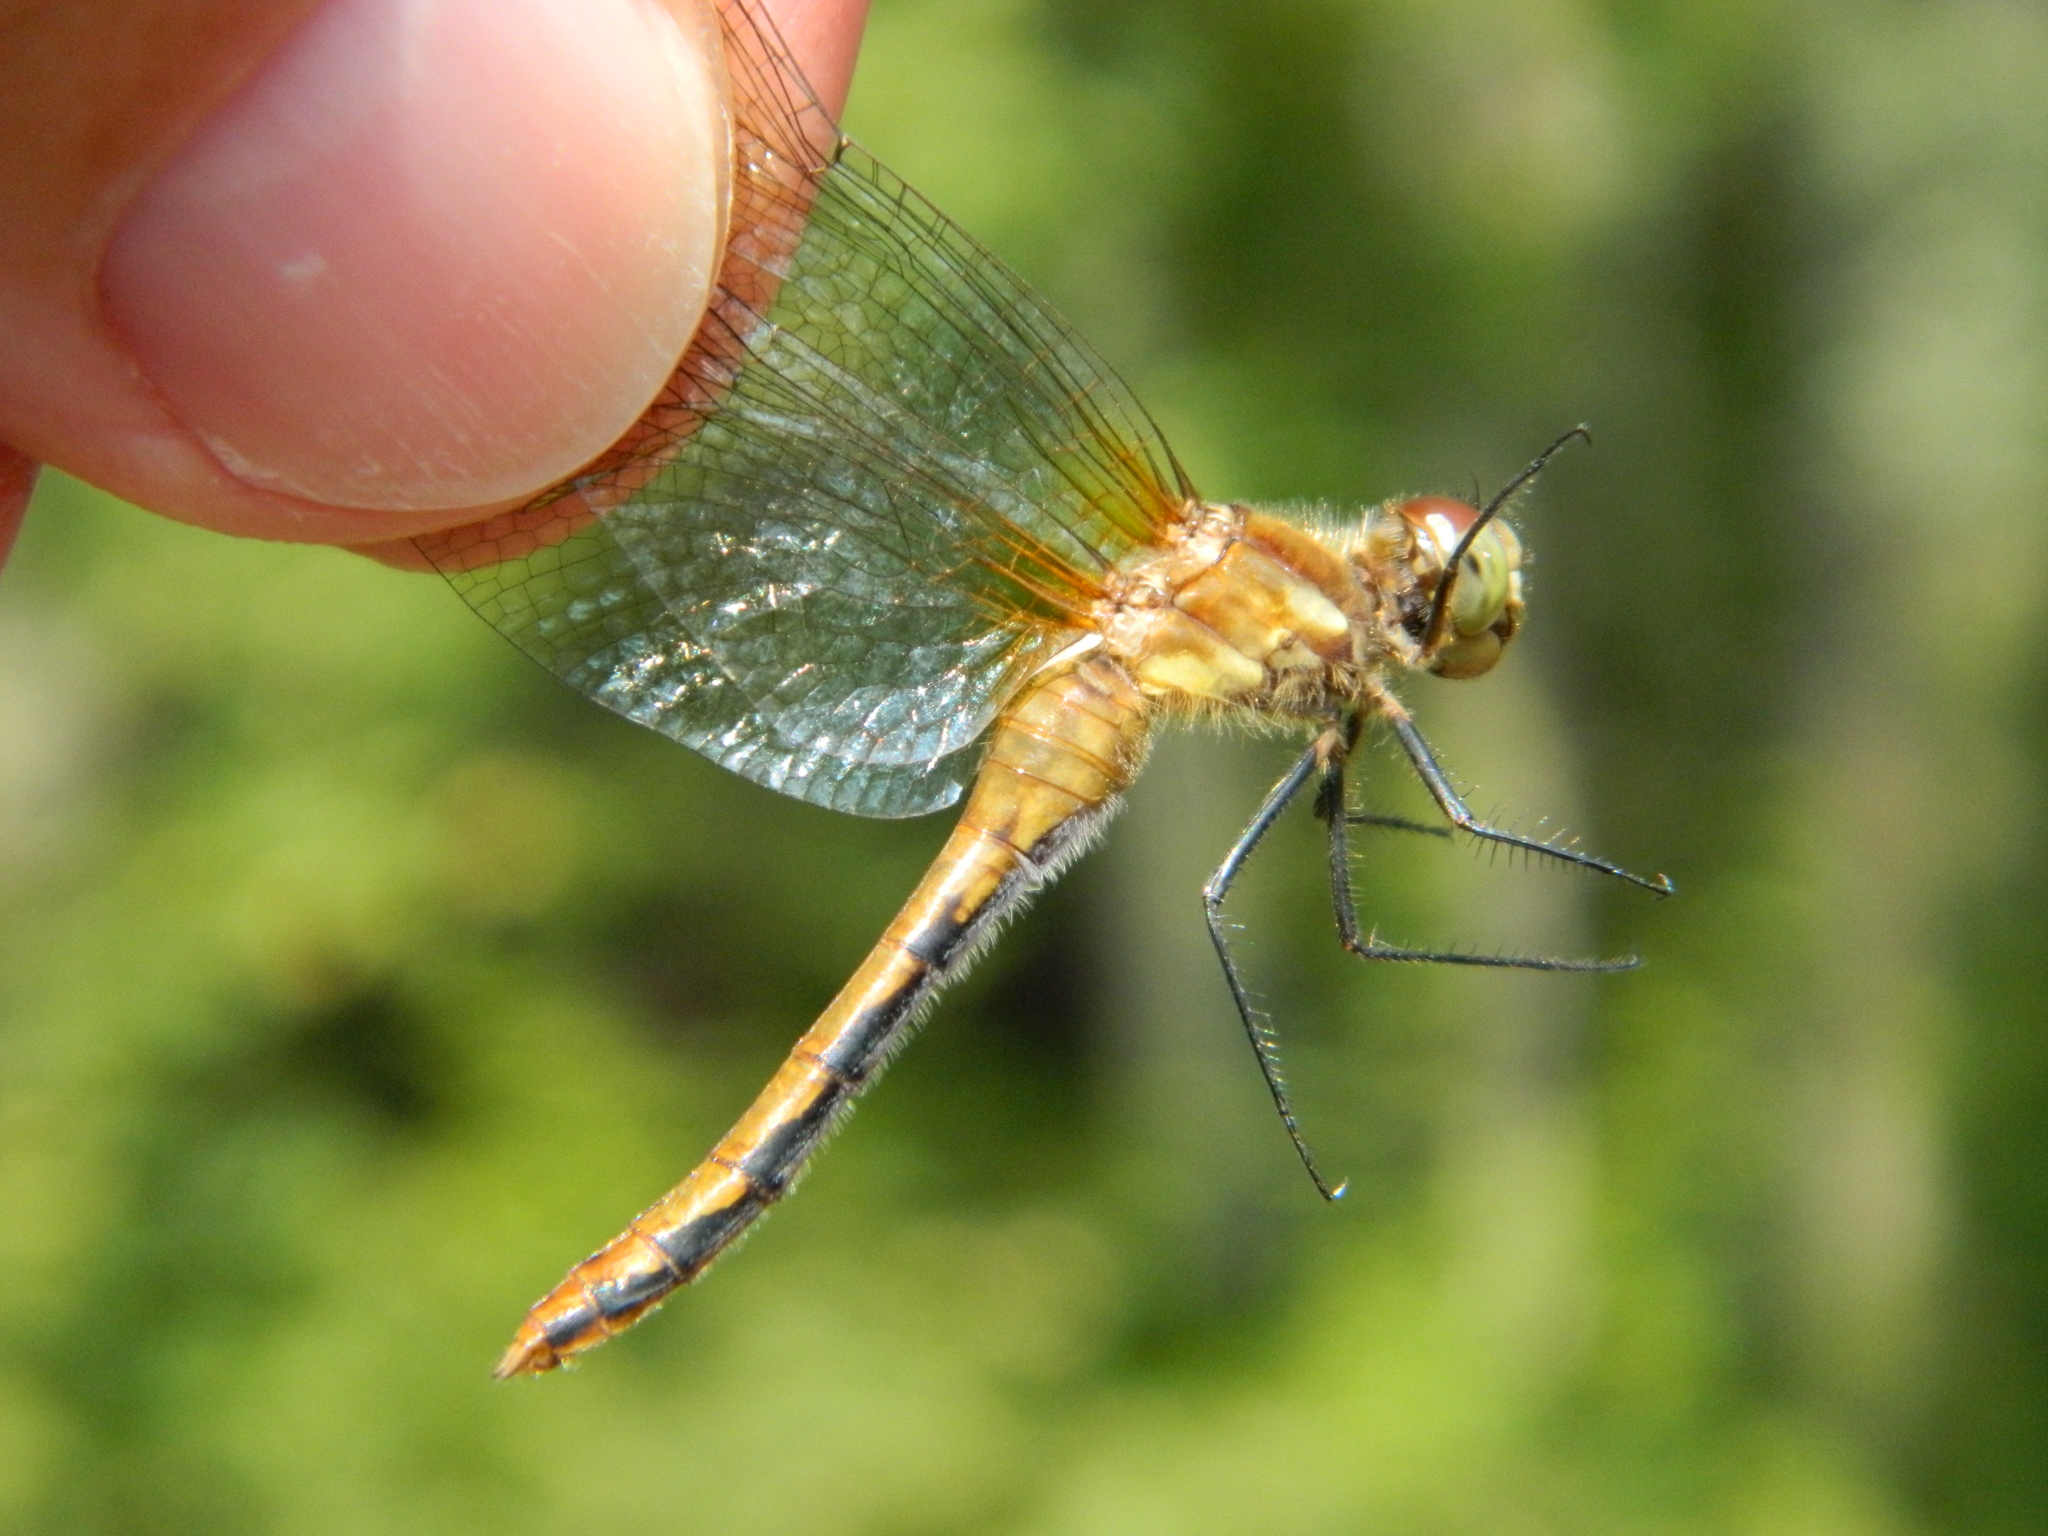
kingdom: Animalia
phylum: Arthropoda
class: Insecta
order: Odonata
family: Libellulidae
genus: Sympetrum
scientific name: Sympetrum obtrusum
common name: White-faced meadowhawk
